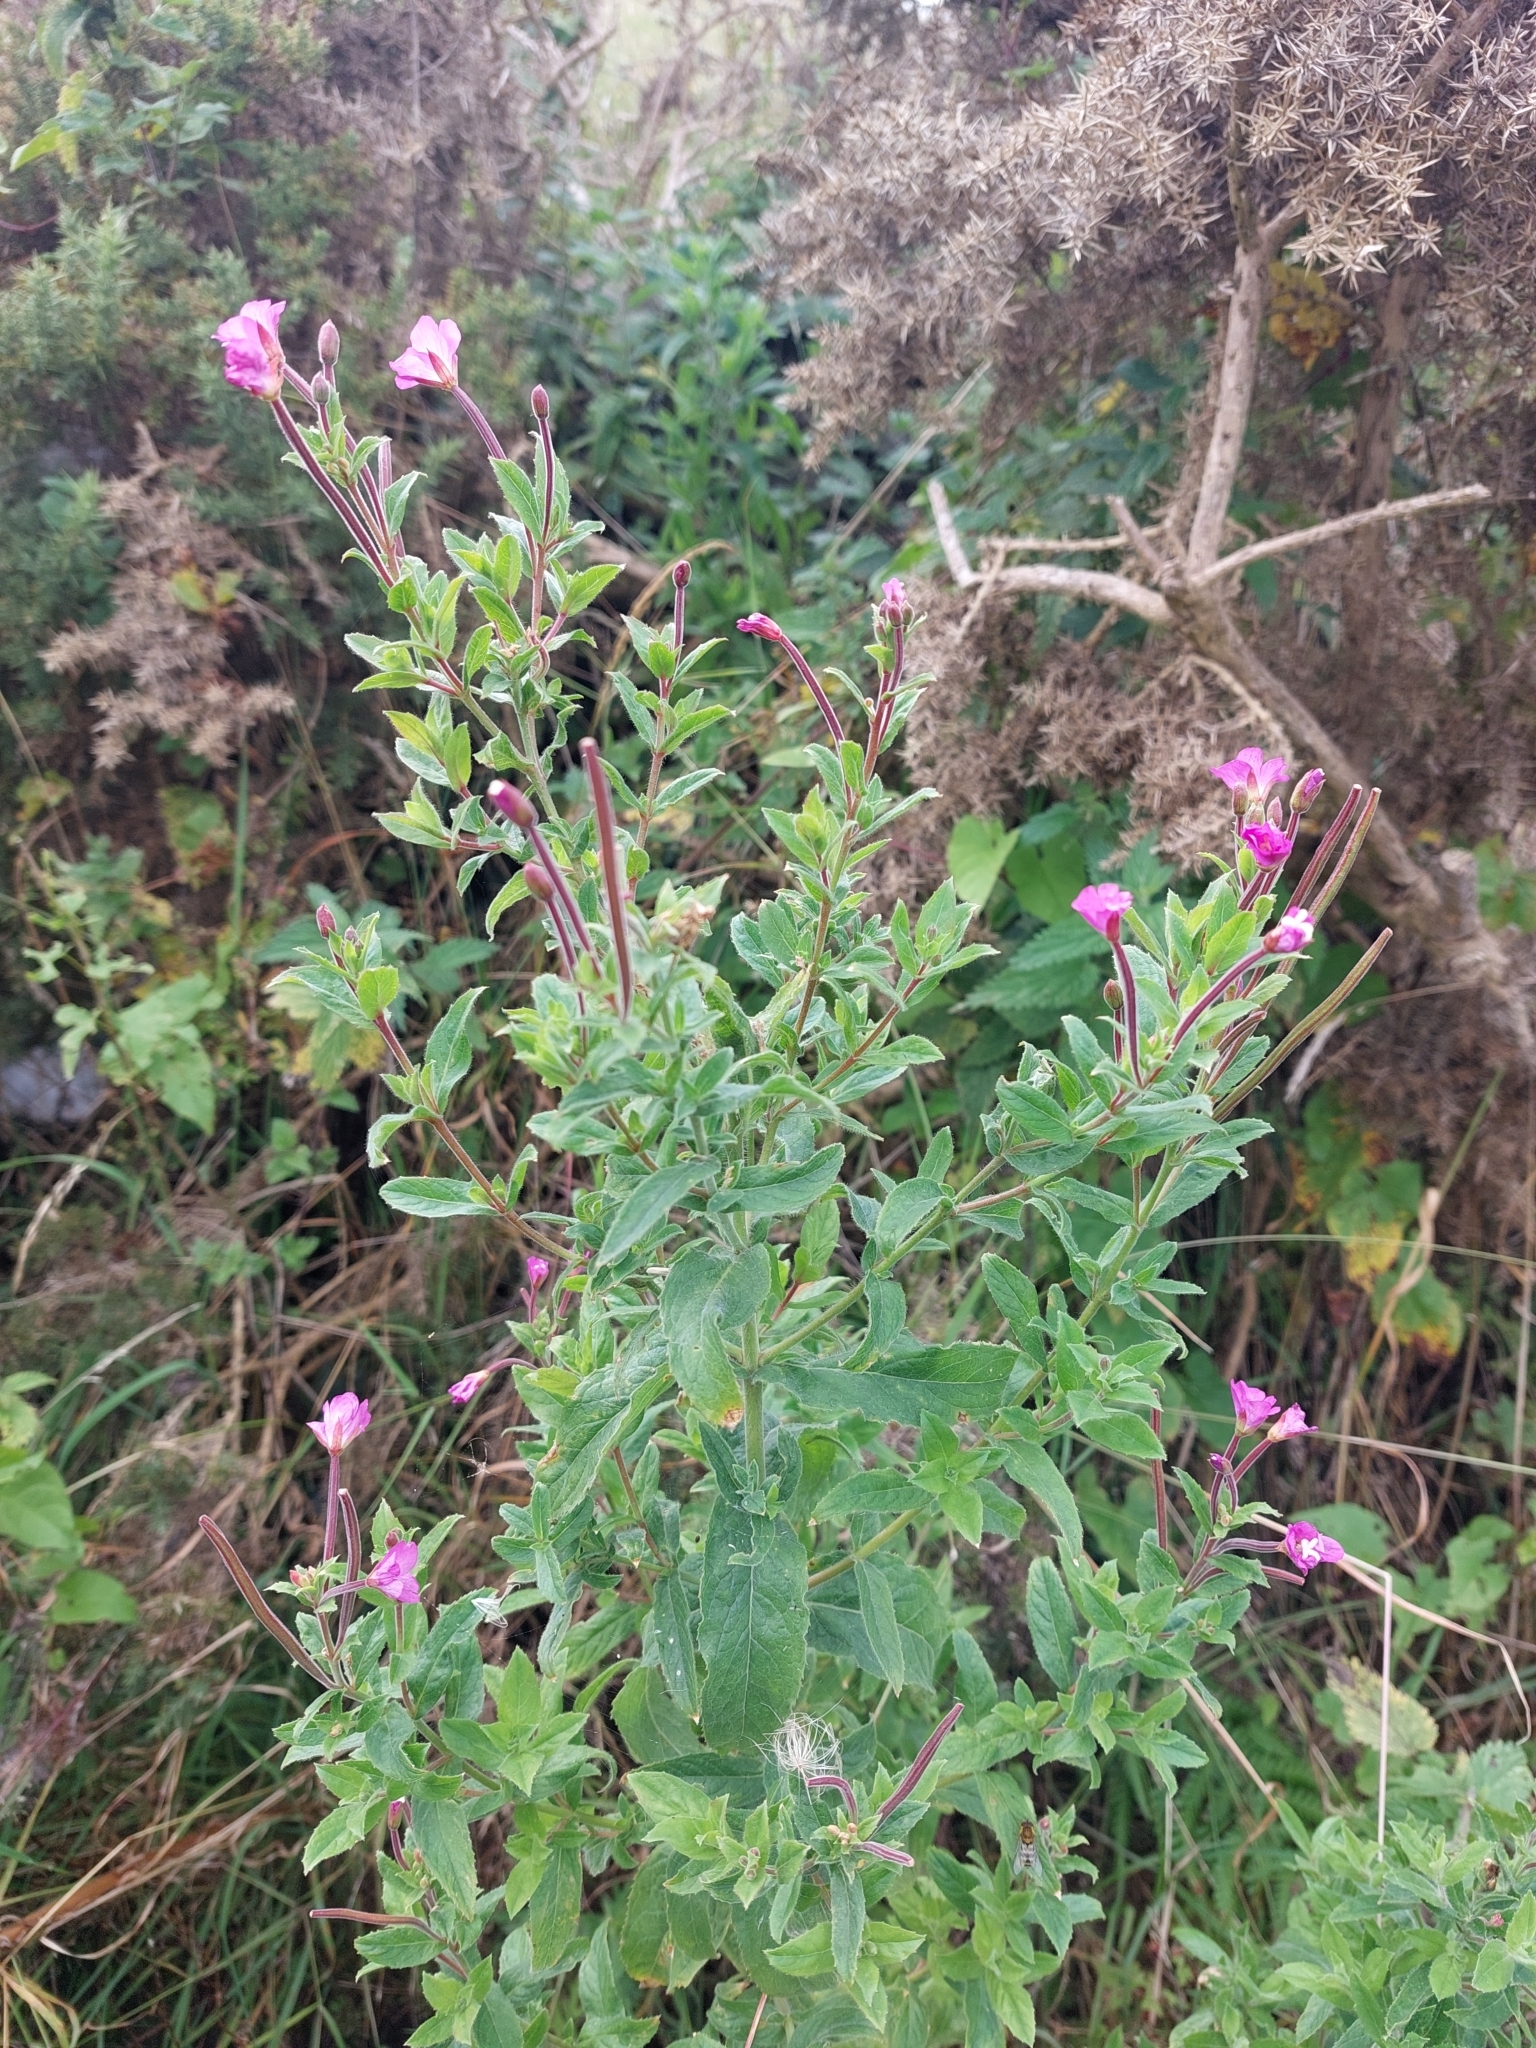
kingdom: Plantae
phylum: Tracheophyta
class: Magnoliopsida
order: Myrtales
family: Onagraceae
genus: Epilobium
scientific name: Epilobium hirsutum
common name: Great willowherb
